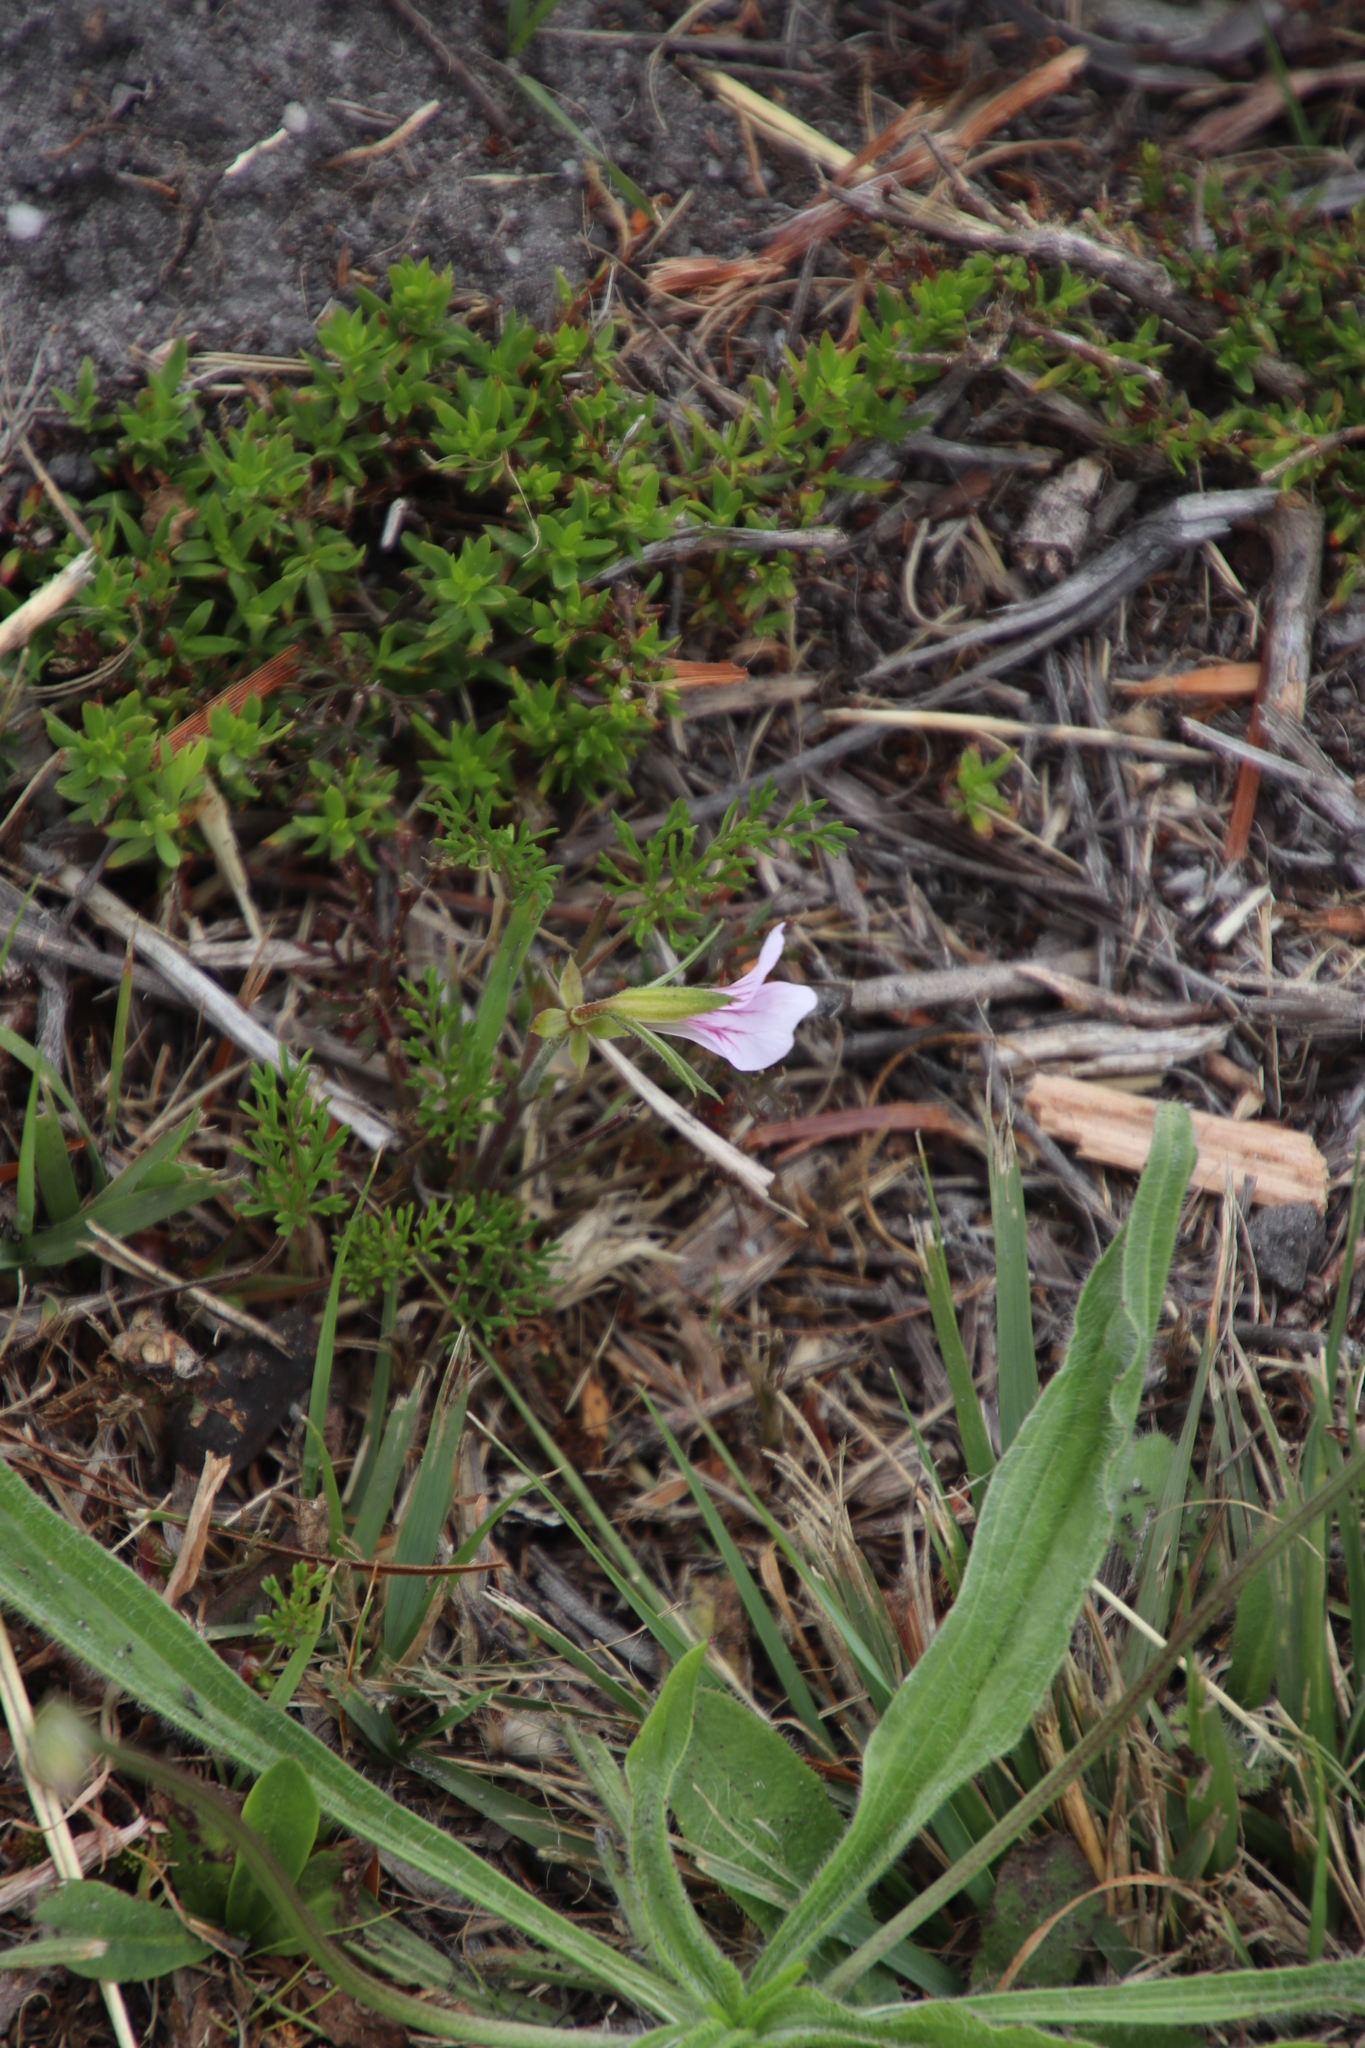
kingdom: Plantae
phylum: Tracheophyta
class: Magnoliopsida
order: Geraniales
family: Geraniaceae
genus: Pelargonium
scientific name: Pelargonium myrrhifolium
